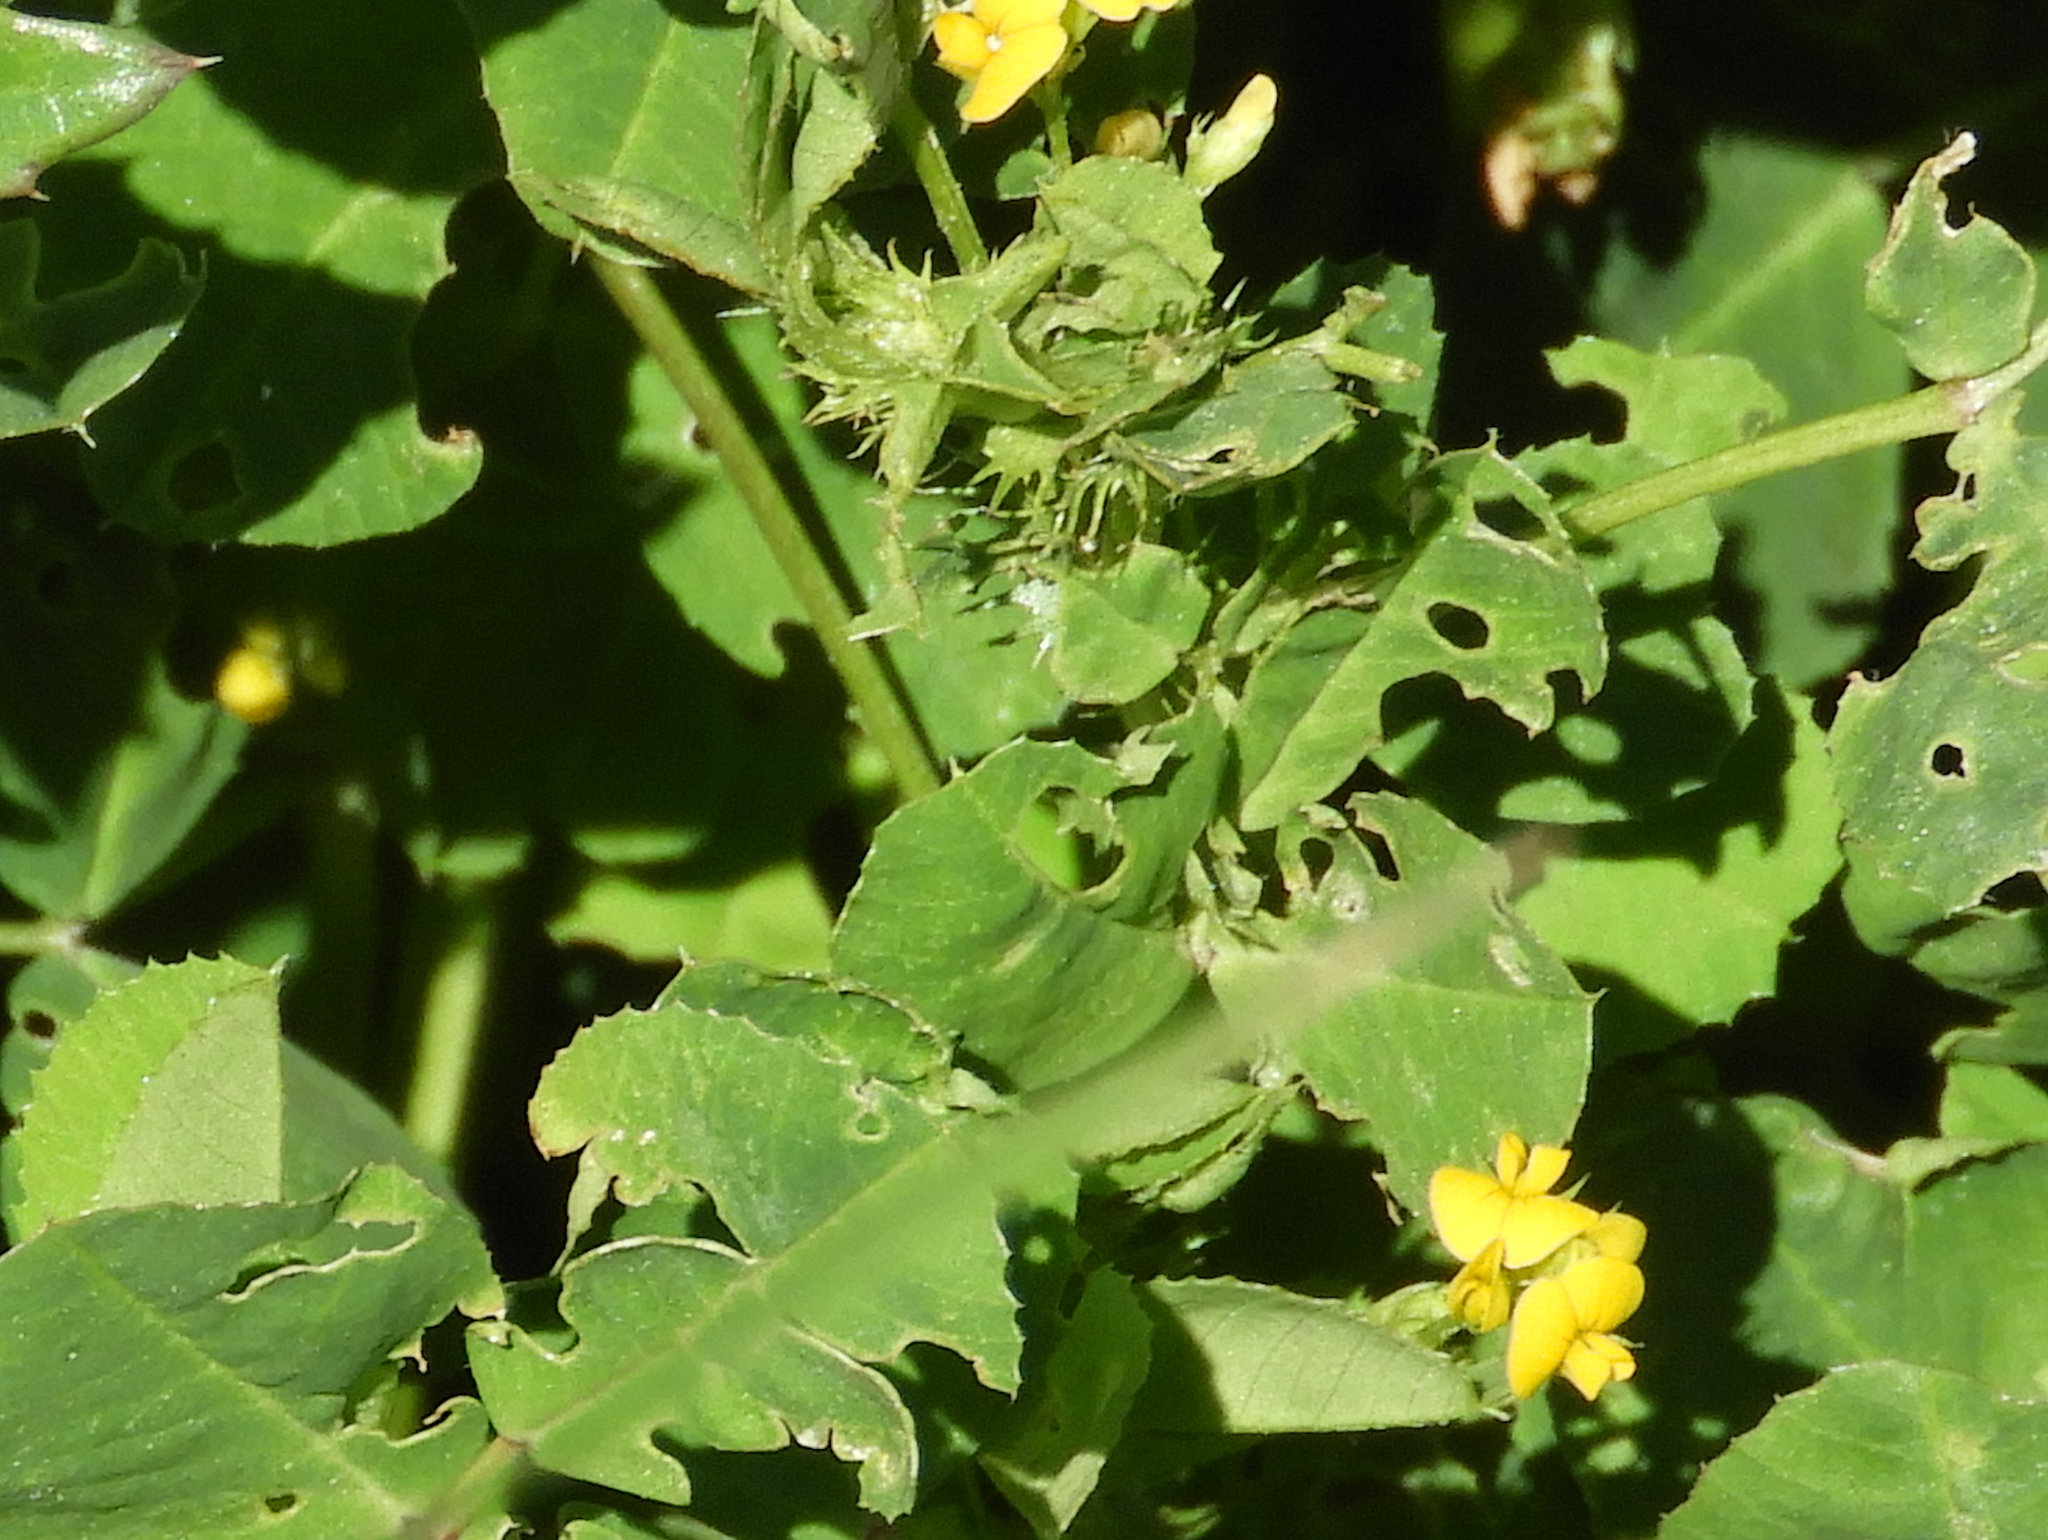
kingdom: Plantae
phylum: Tracheophyta
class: Magnoliopsida
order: Fabales
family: Fabaceae
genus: Medicago
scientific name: Medicago polymorpha
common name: Burclover
